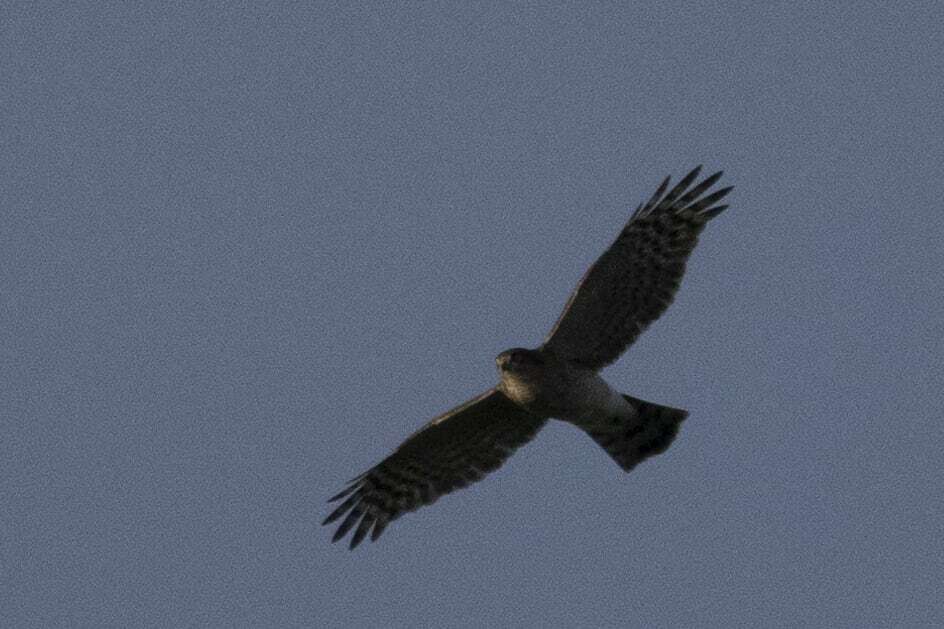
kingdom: Animalia
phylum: Chordata
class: Aves
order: Accipitriformes
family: Accipitridae
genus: Accipiter
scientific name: Accipiter nisus
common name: Eurasian sparrowhawk
